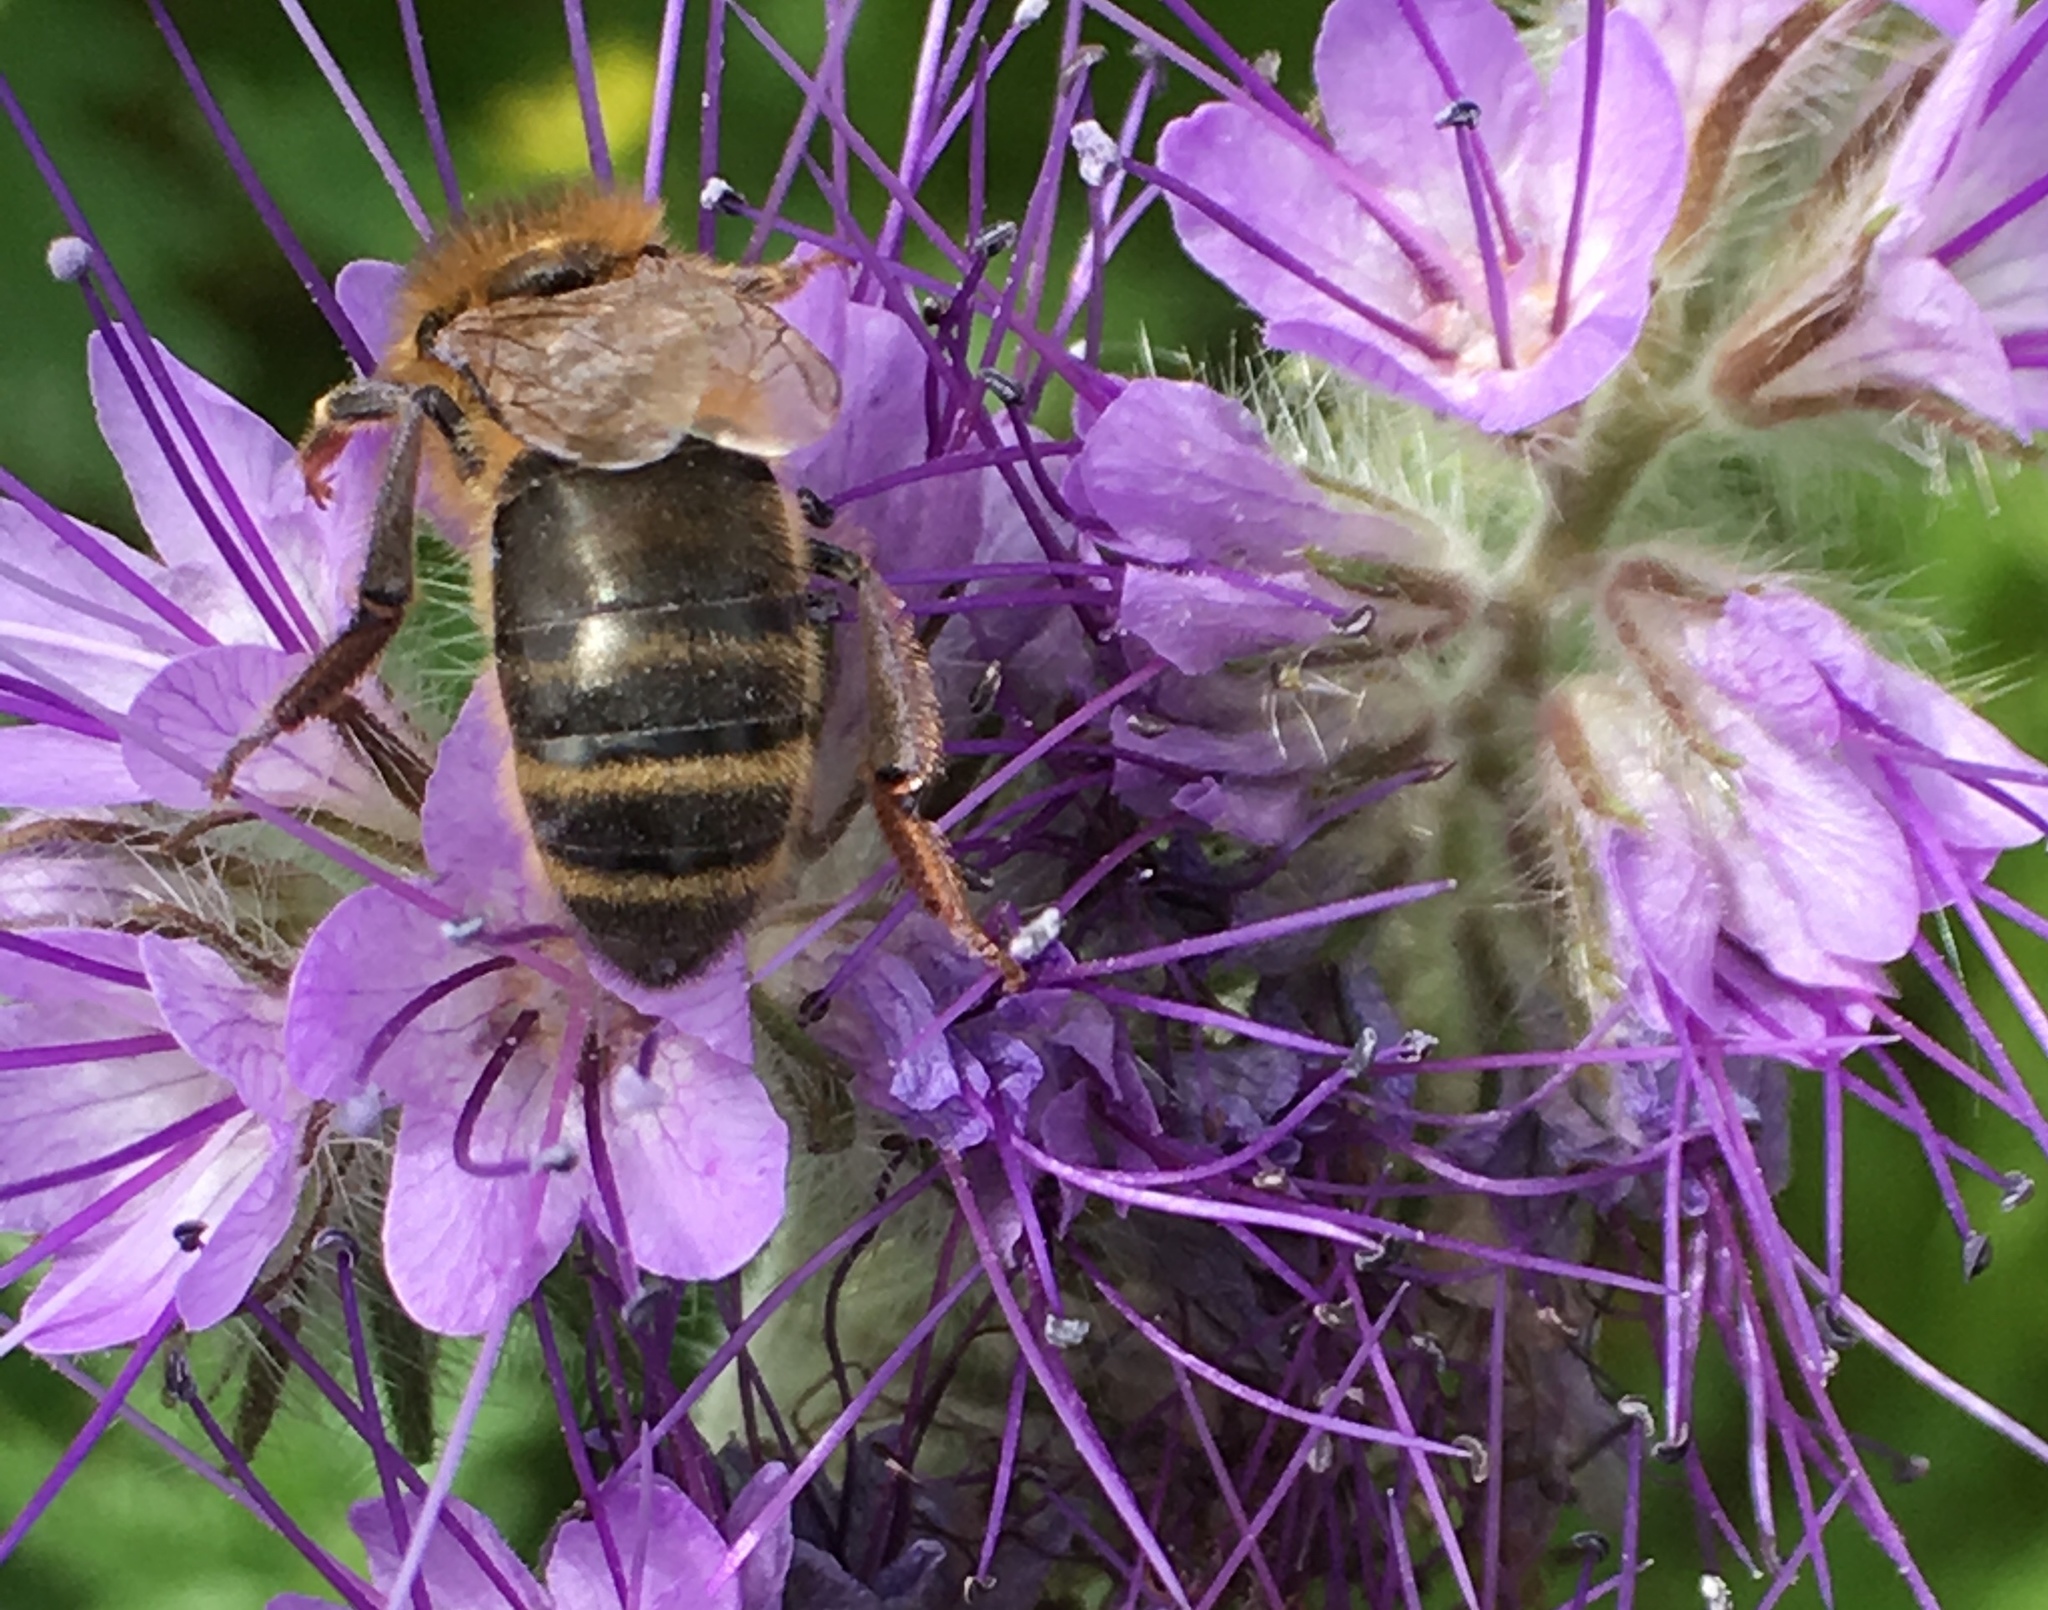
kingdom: Animalia
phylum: Arthropoda
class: Insecta
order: Hymenoptera
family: Apidae
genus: Apis
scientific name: Apis mellifera
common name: Honey bee
